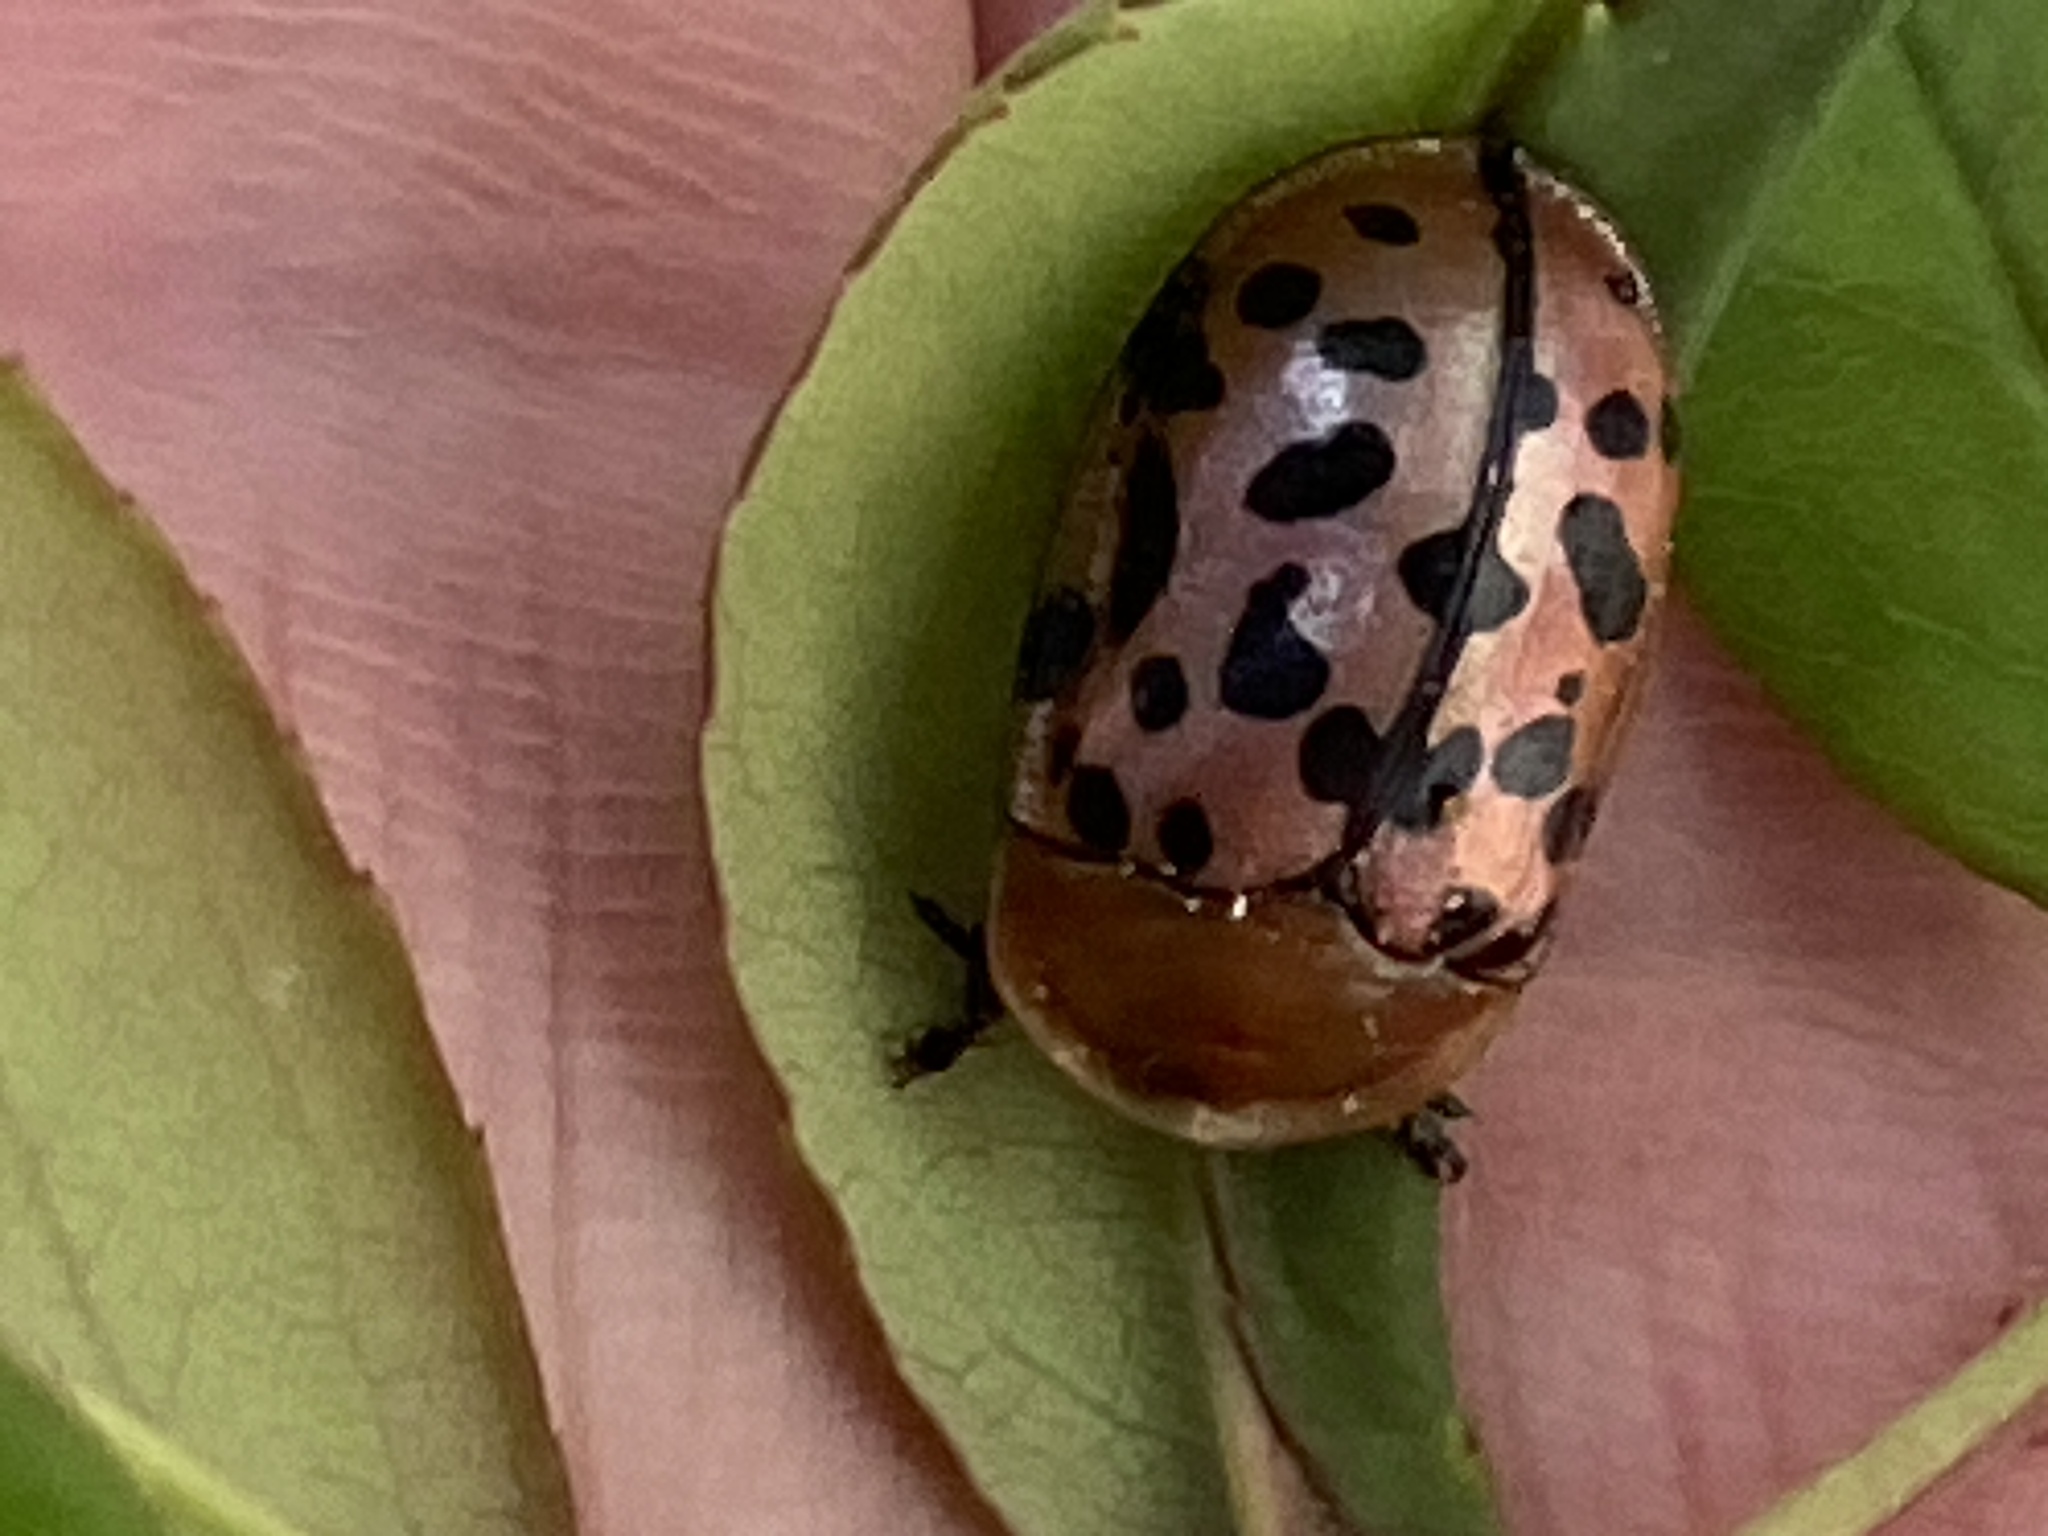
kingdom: Animalia
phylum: Arthropoda
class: Insecta
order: Coleoptera
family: Chrysomelidae
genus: Conchyloctenia
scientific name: Conchyloctenia punctata
